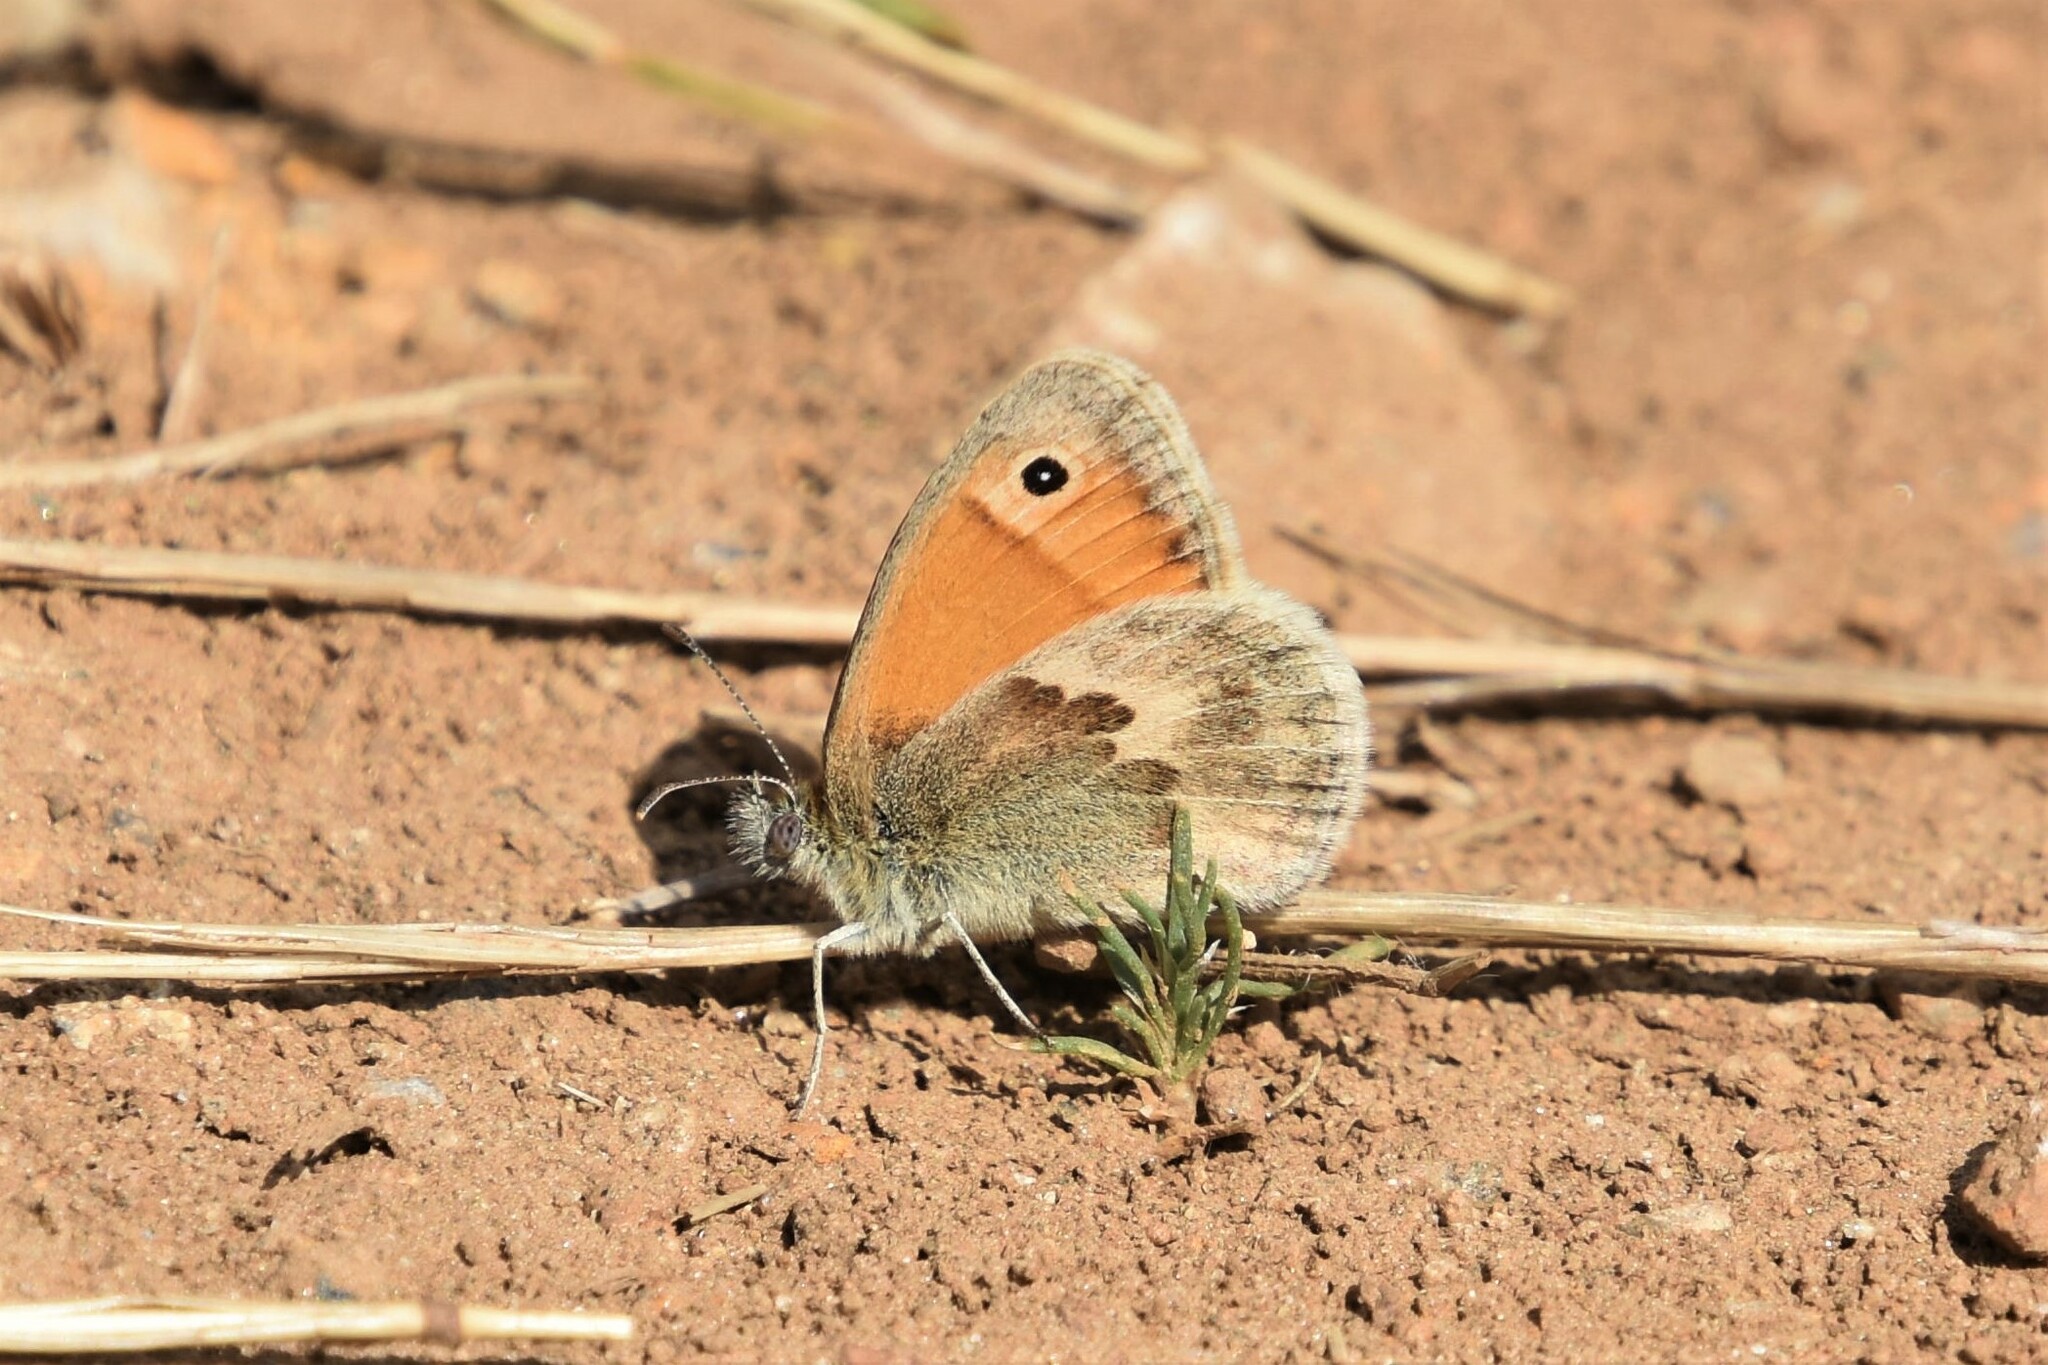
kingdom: Animalia
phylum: Arthropoda
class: Insecta
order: Lepidoptera
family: Nymphalidae
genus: Coenonympha
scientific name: Coenonympha pamphilus
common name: Small heath
